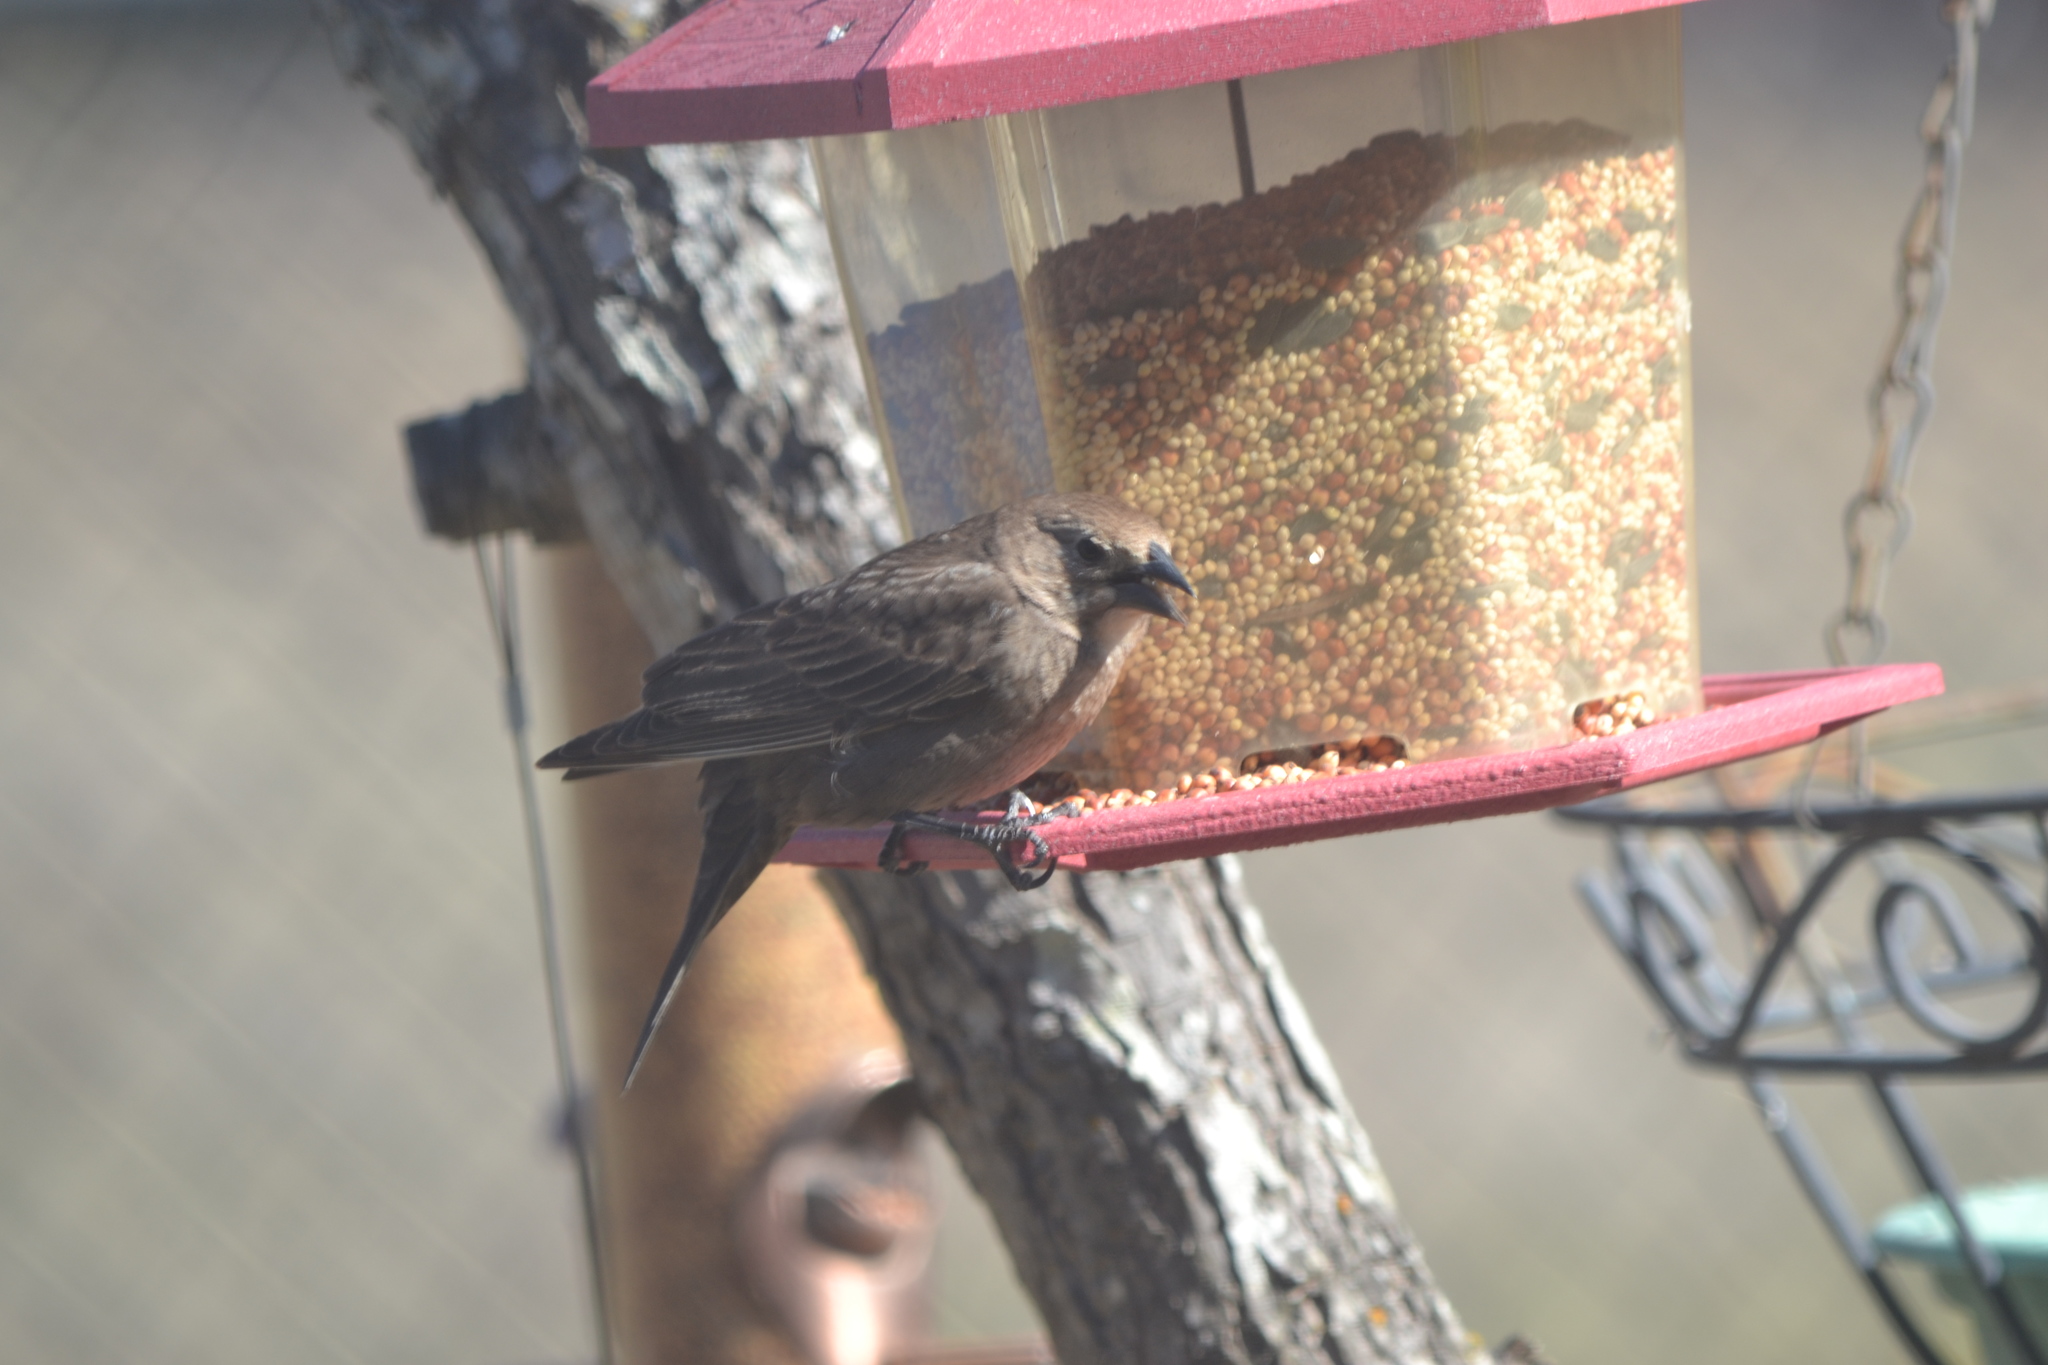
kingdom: Animalia
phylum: Chordata
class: Aves
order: Passeriformes
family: Icteridae
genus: Molothrus
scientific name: Molothrus ater
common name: Brown-headed cowbird
